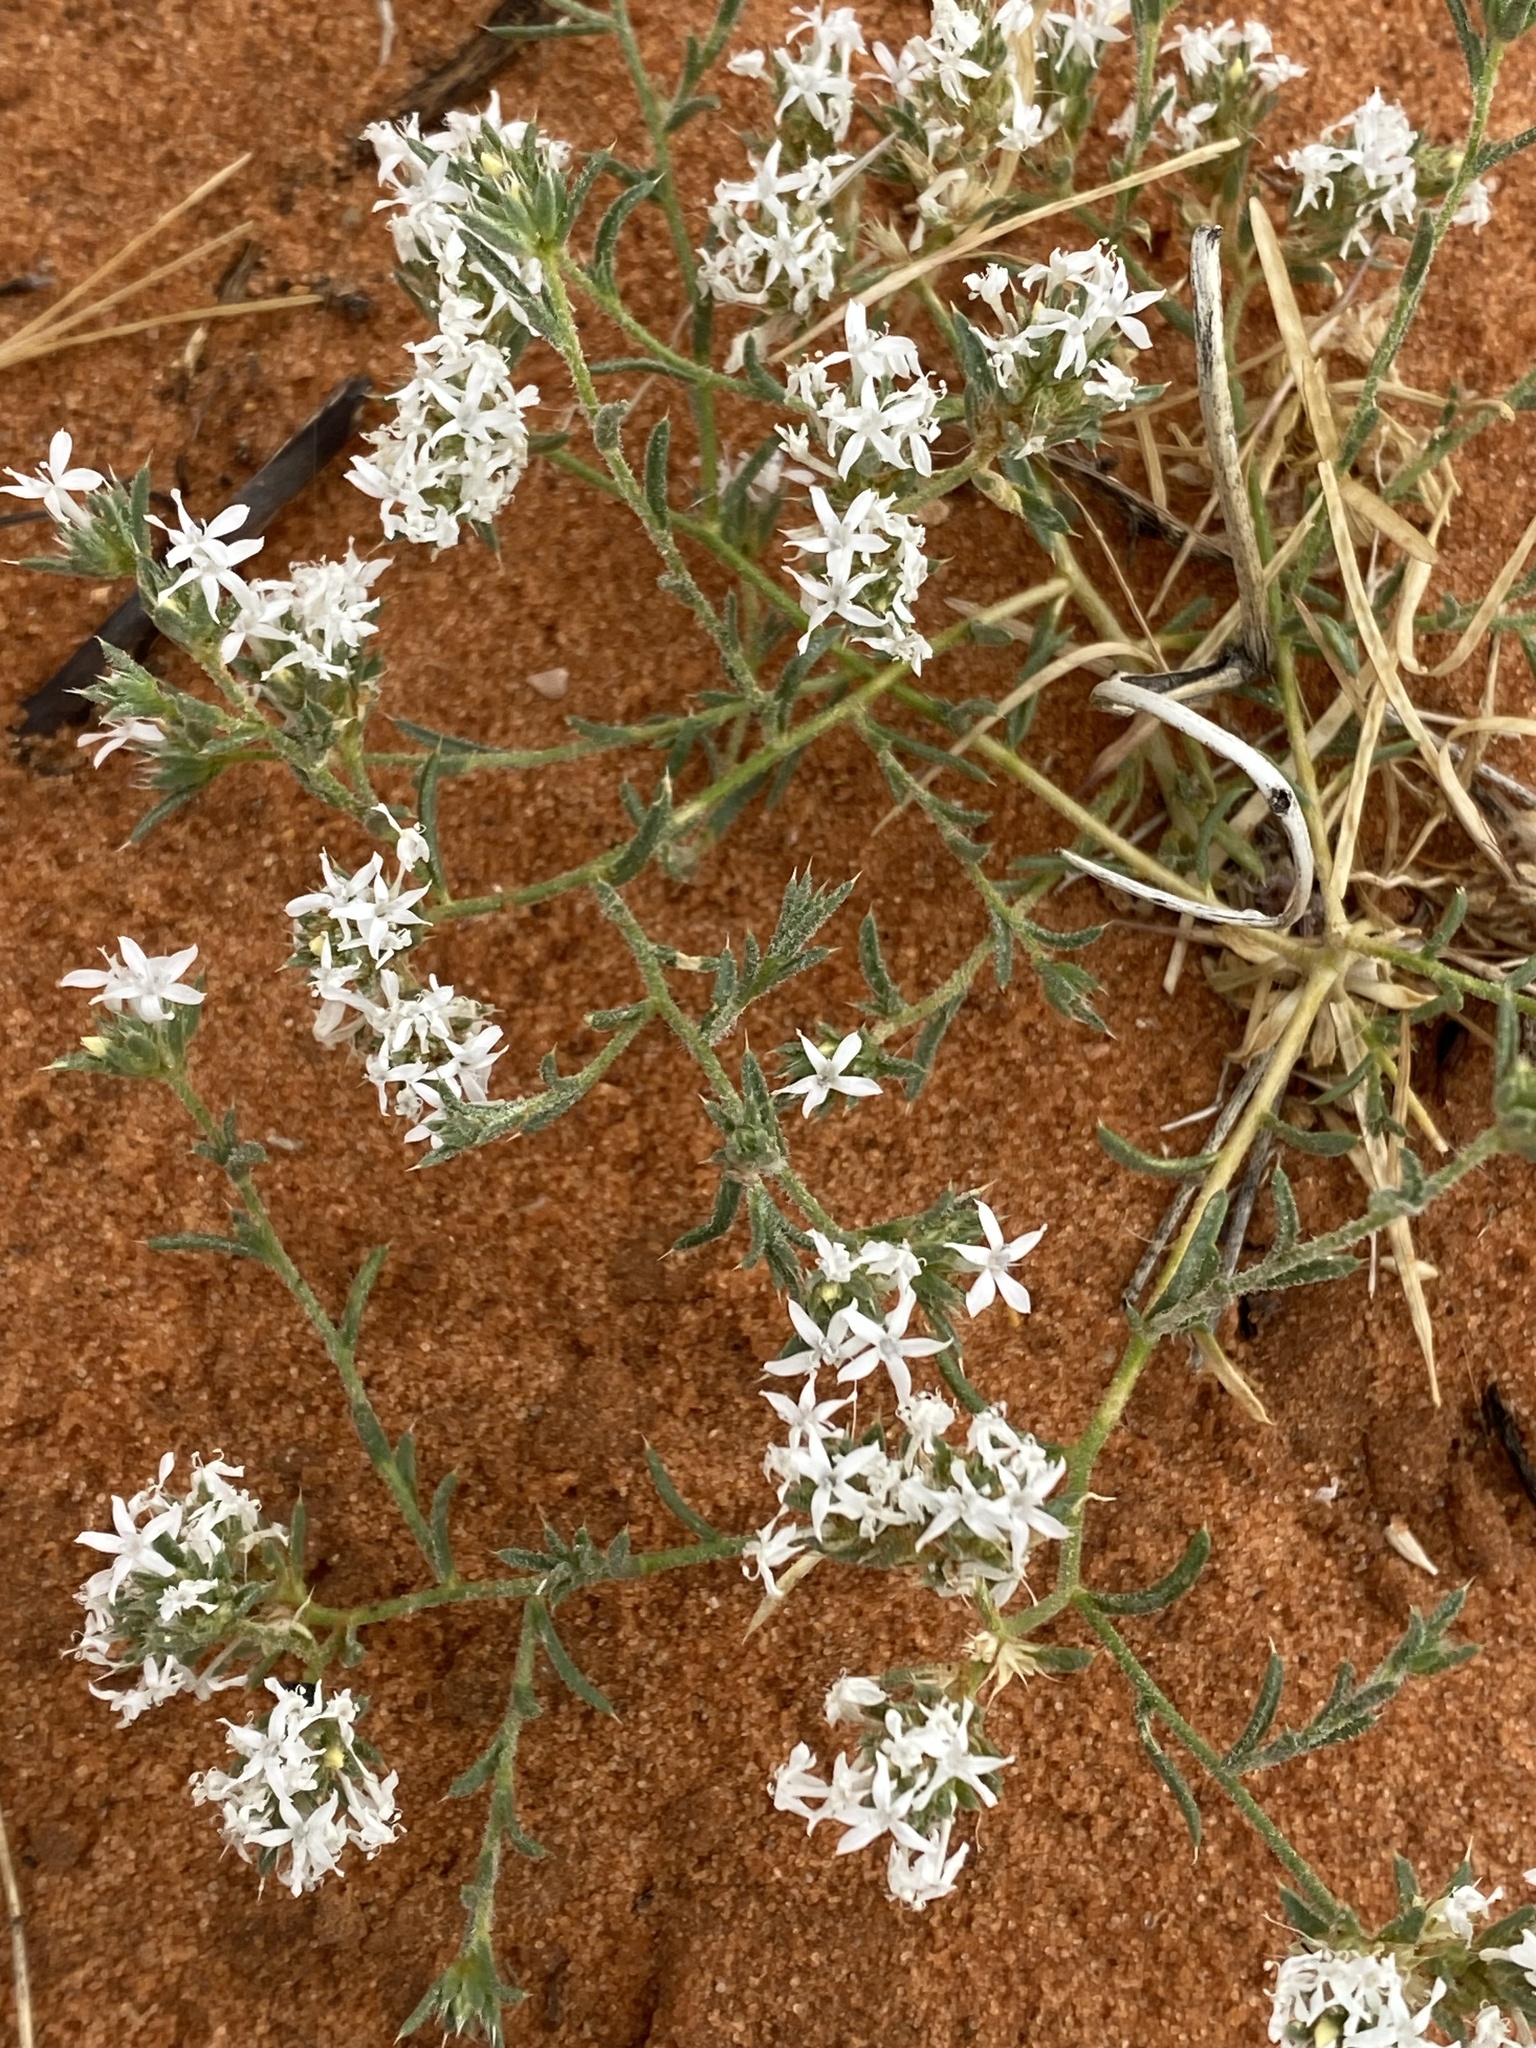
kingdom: Plantae
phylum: Tracheophyta
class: Magnoliopsida
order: Ericales
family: Polemoniaceae
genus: Ipomopsis
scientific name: Ipomopsis gunnisonii
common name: Sand-dune gilia
